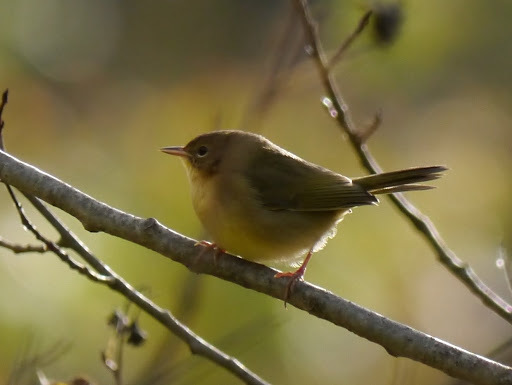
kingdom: Animalia
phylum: Chordata
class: Aves
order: Passeriformes
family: Parulidae
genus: Geothlypis
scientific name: Geothlypis trichas
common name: Common yellowthroat
